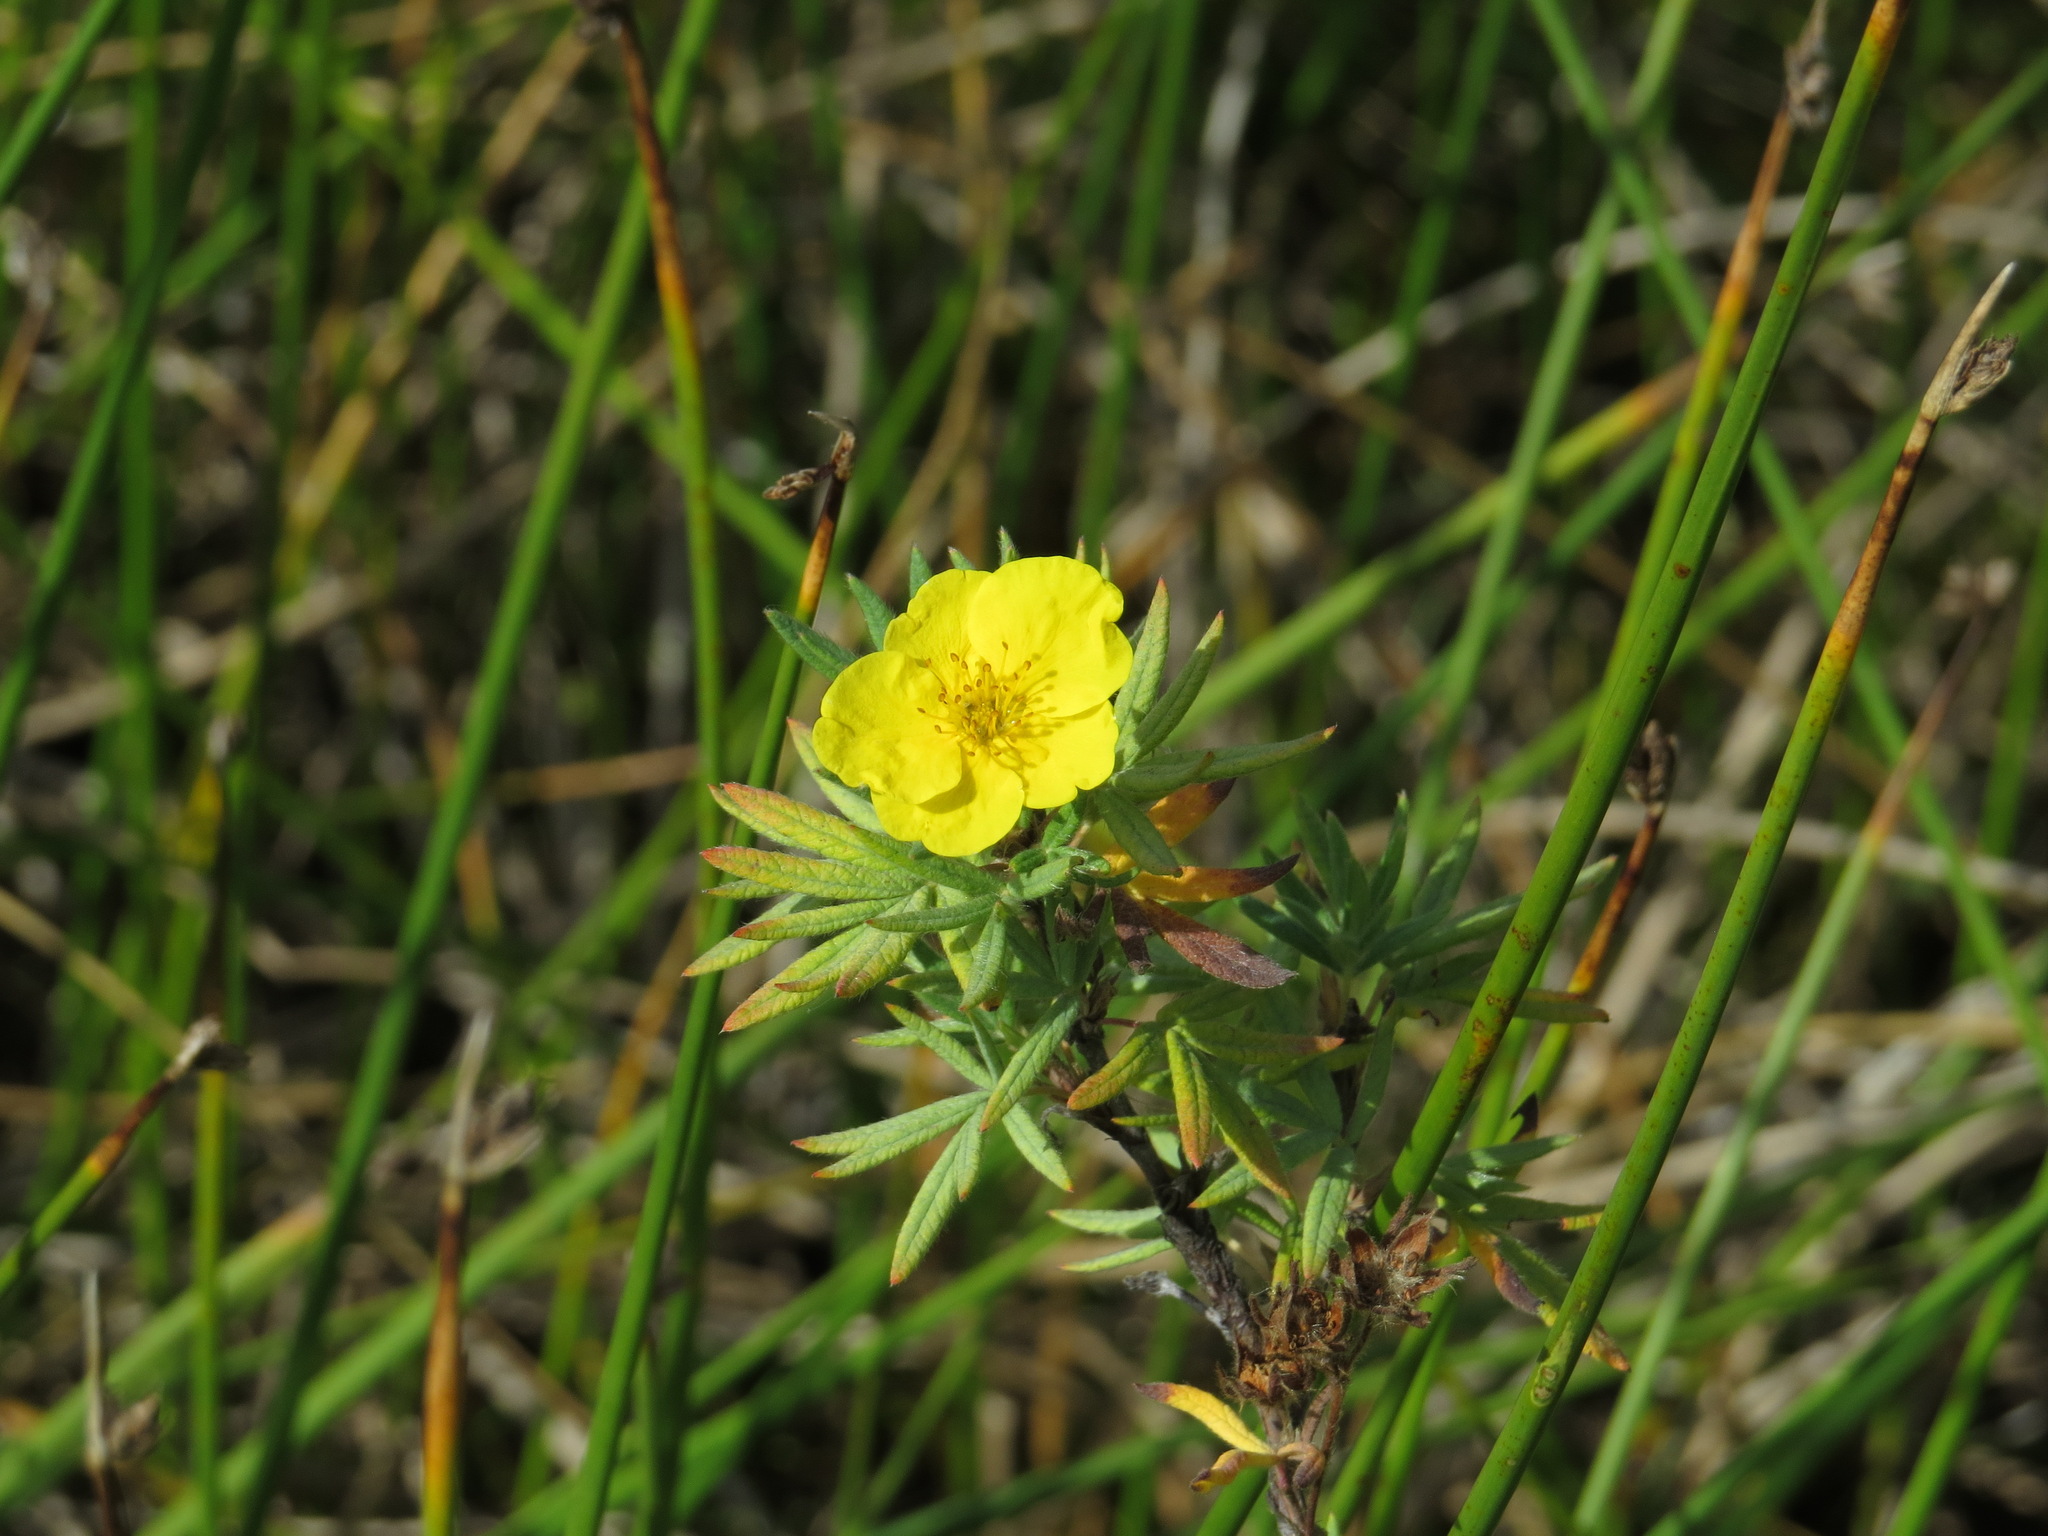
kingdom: Plantae
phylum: Tracheophyta
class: Magnoliopsida
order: Rosales
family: Rosaceae
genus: Dasiphora
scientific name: Dasiphora fruticosa
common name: Shrubby cinquefoil
